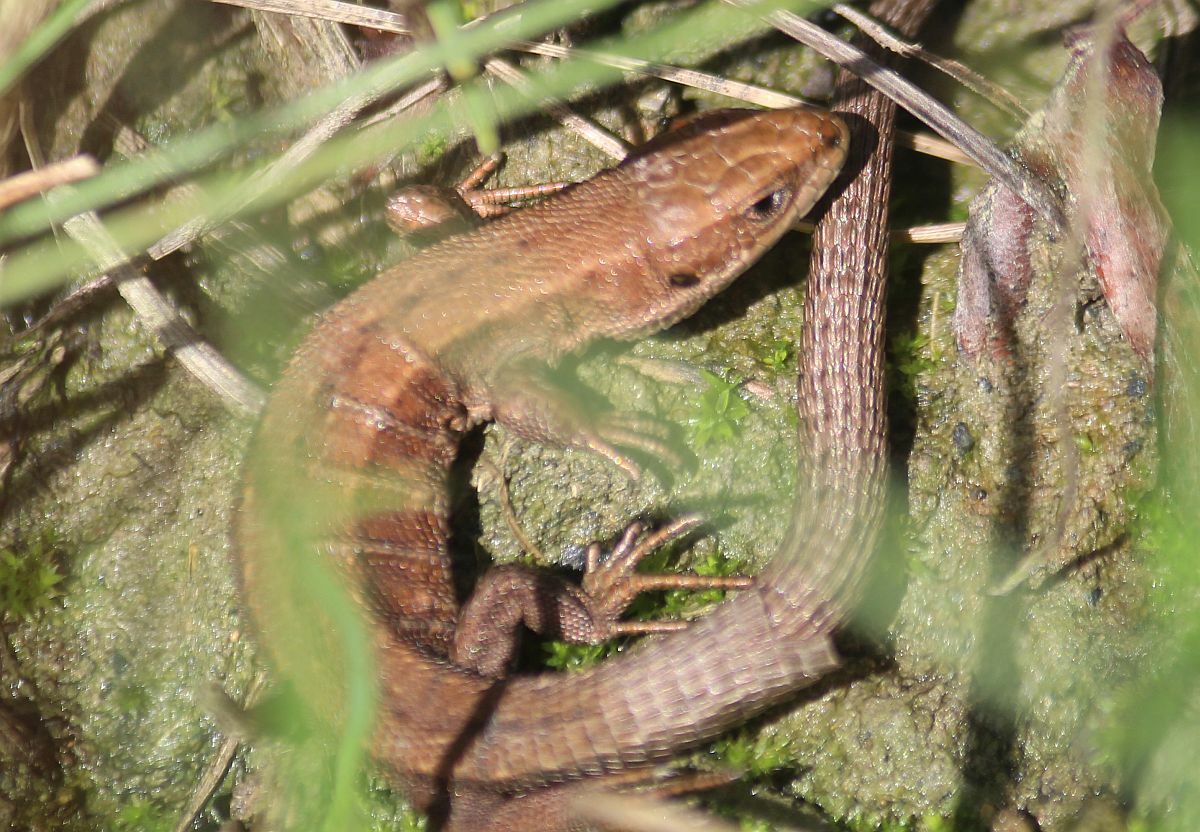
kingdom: Animalia
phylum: Chordata
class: Squamata
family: Lacertidae
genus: Zootoca
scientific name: Zootoca vivipara
